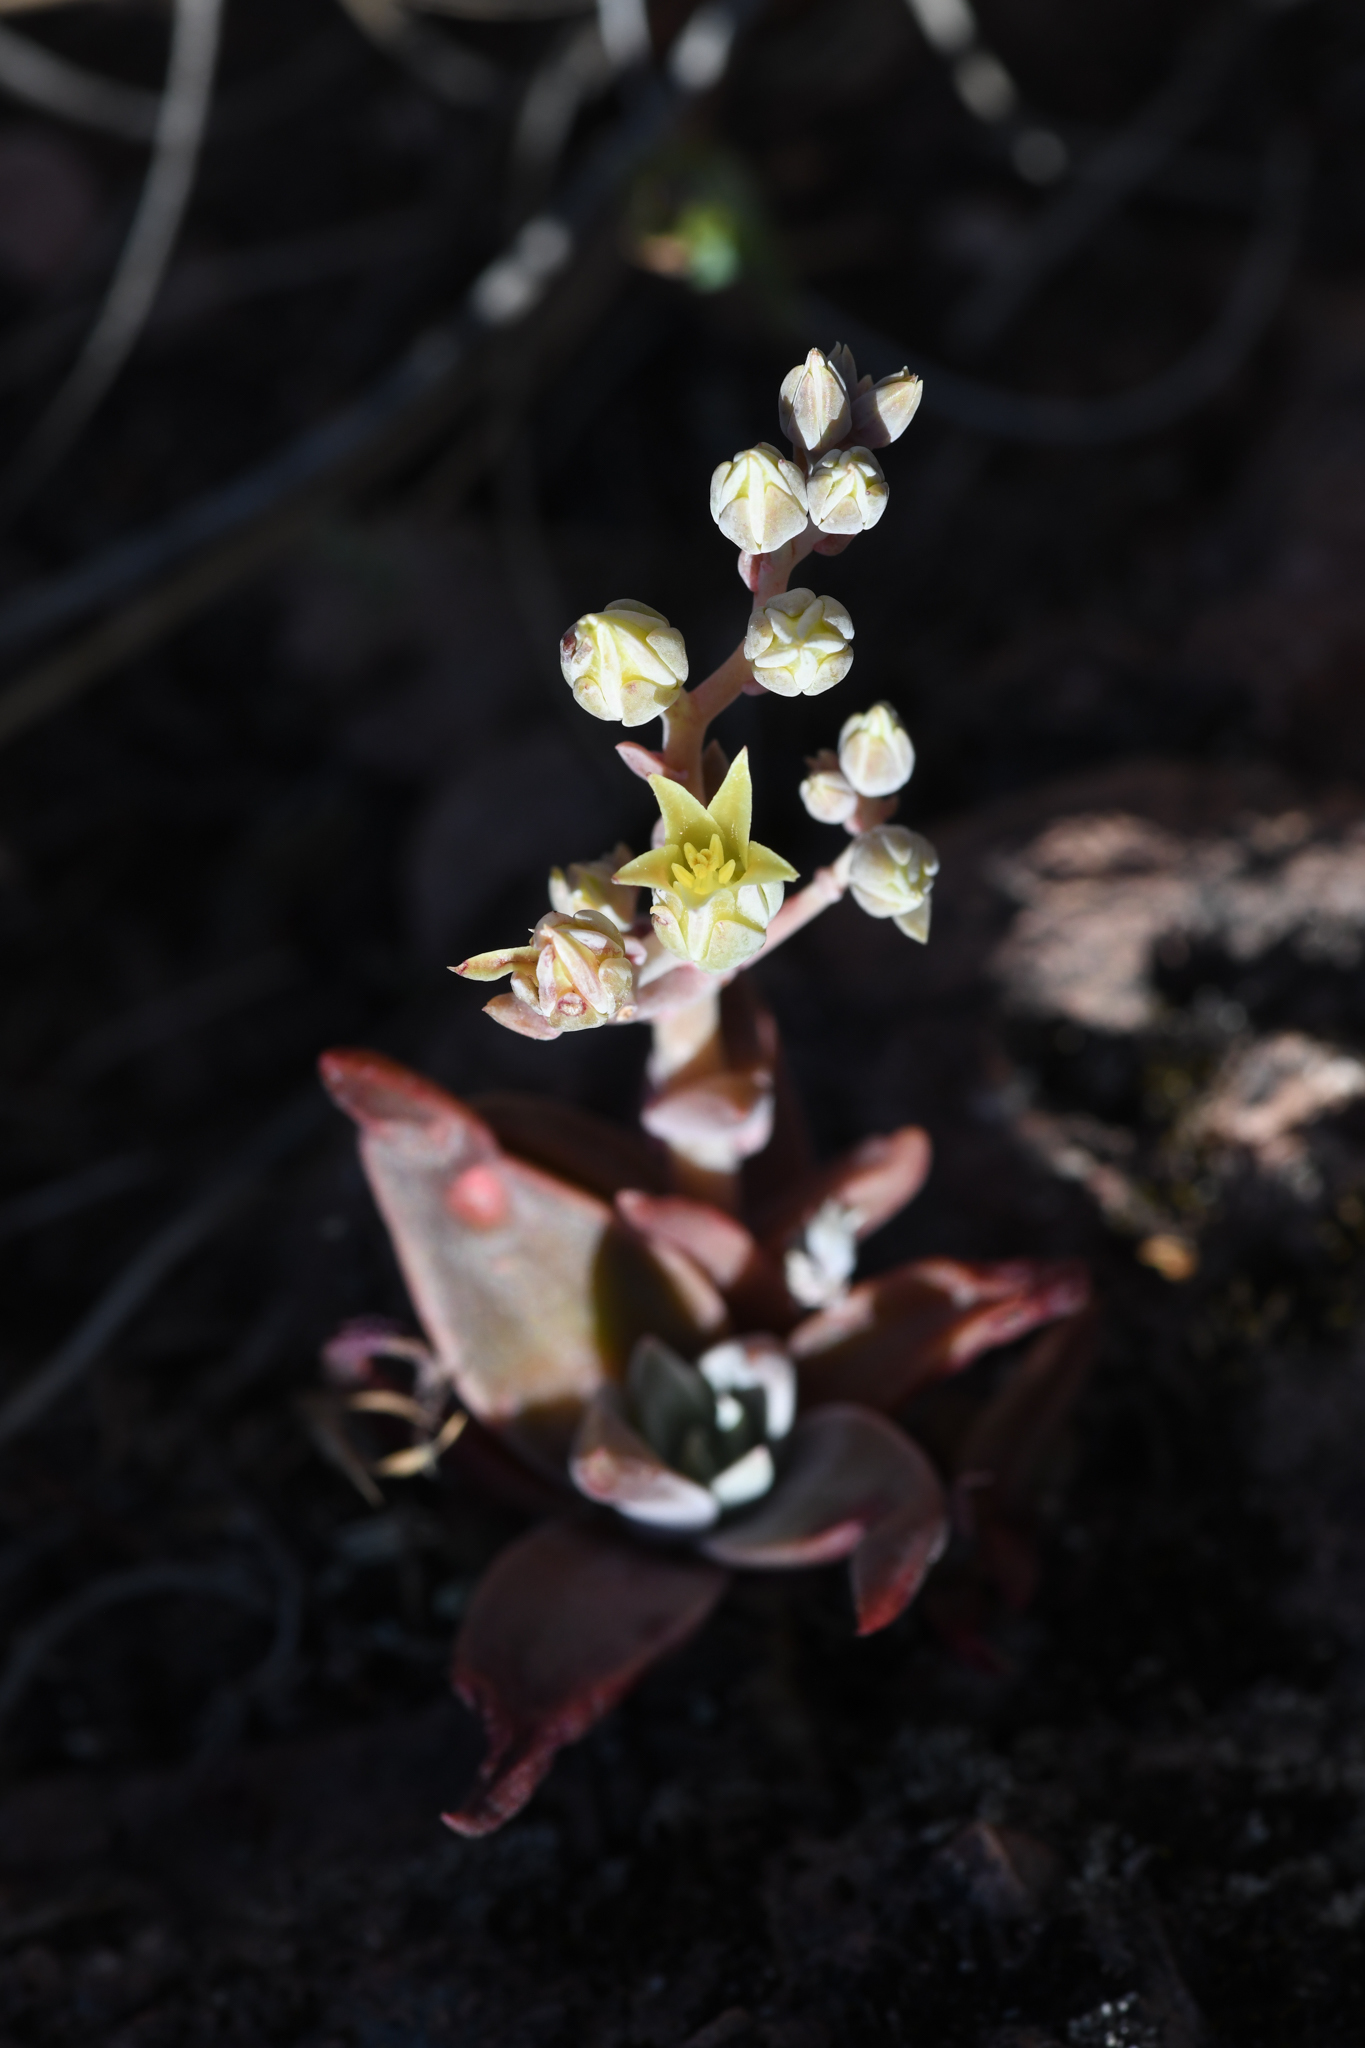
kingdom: Plantae
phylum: Tracheophyta
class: Magnoliopsida
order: Saxifragales
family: Crassulaceae
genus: Dudleya
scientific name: Dudleya cymosa
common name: Canyon dudleya
